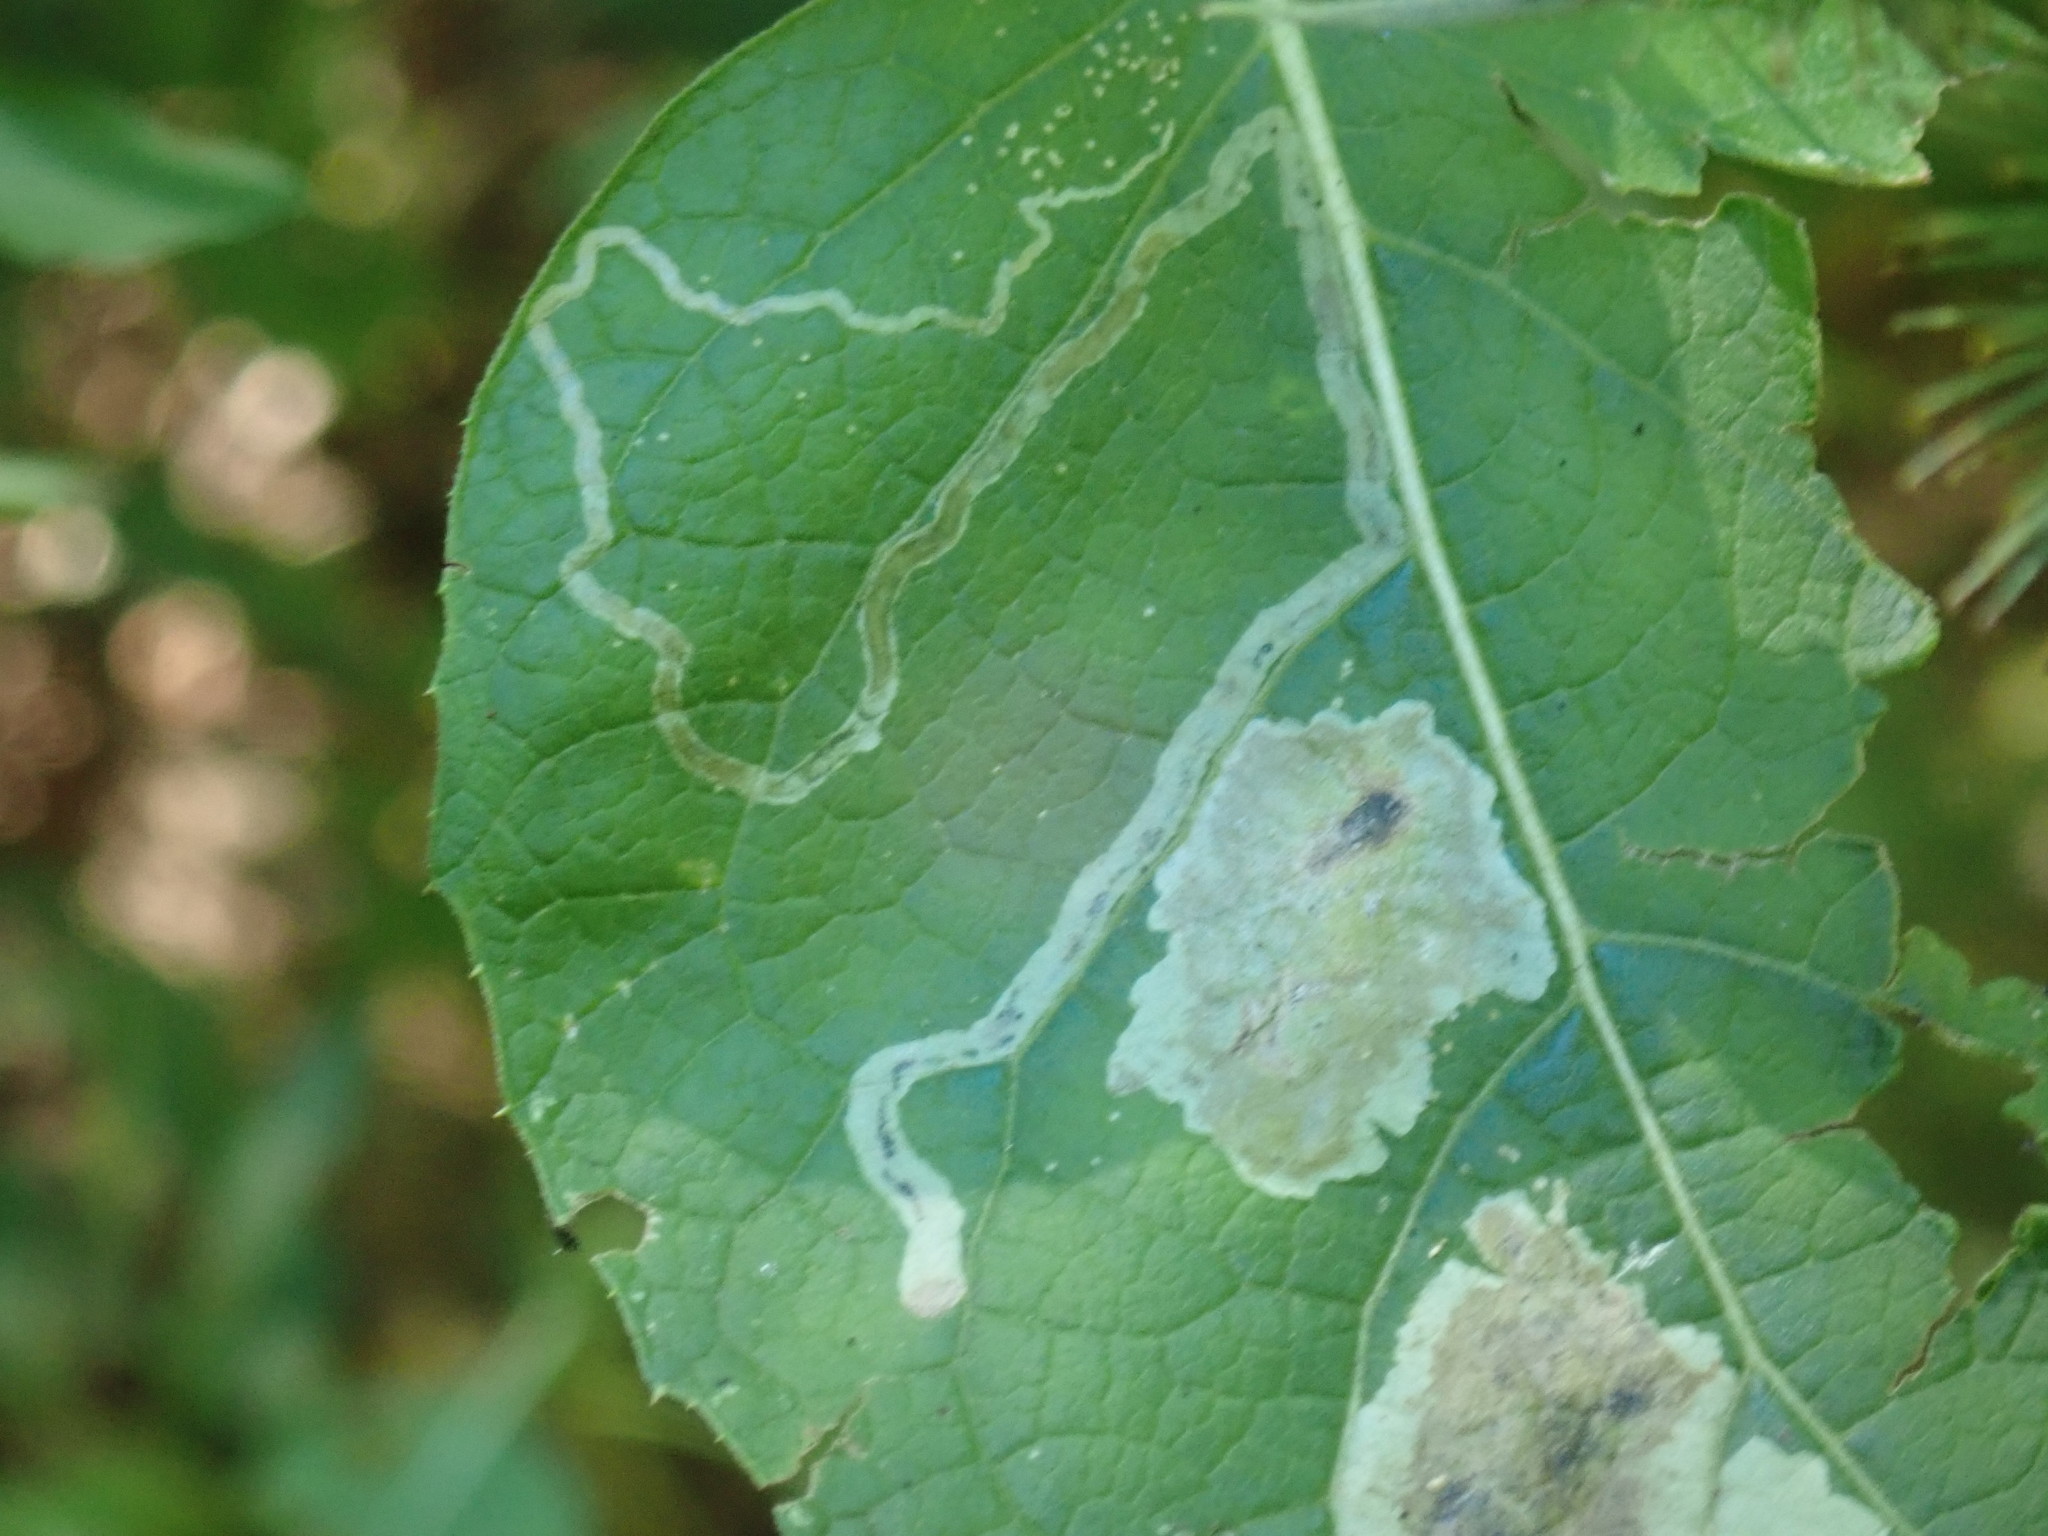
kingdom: Animalia
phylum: Arthropoda
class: Insecta
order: Diptera
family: Agromyzidae
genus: Liriomyza
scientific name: Liriomyza arctii
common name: Burdock leafminer
